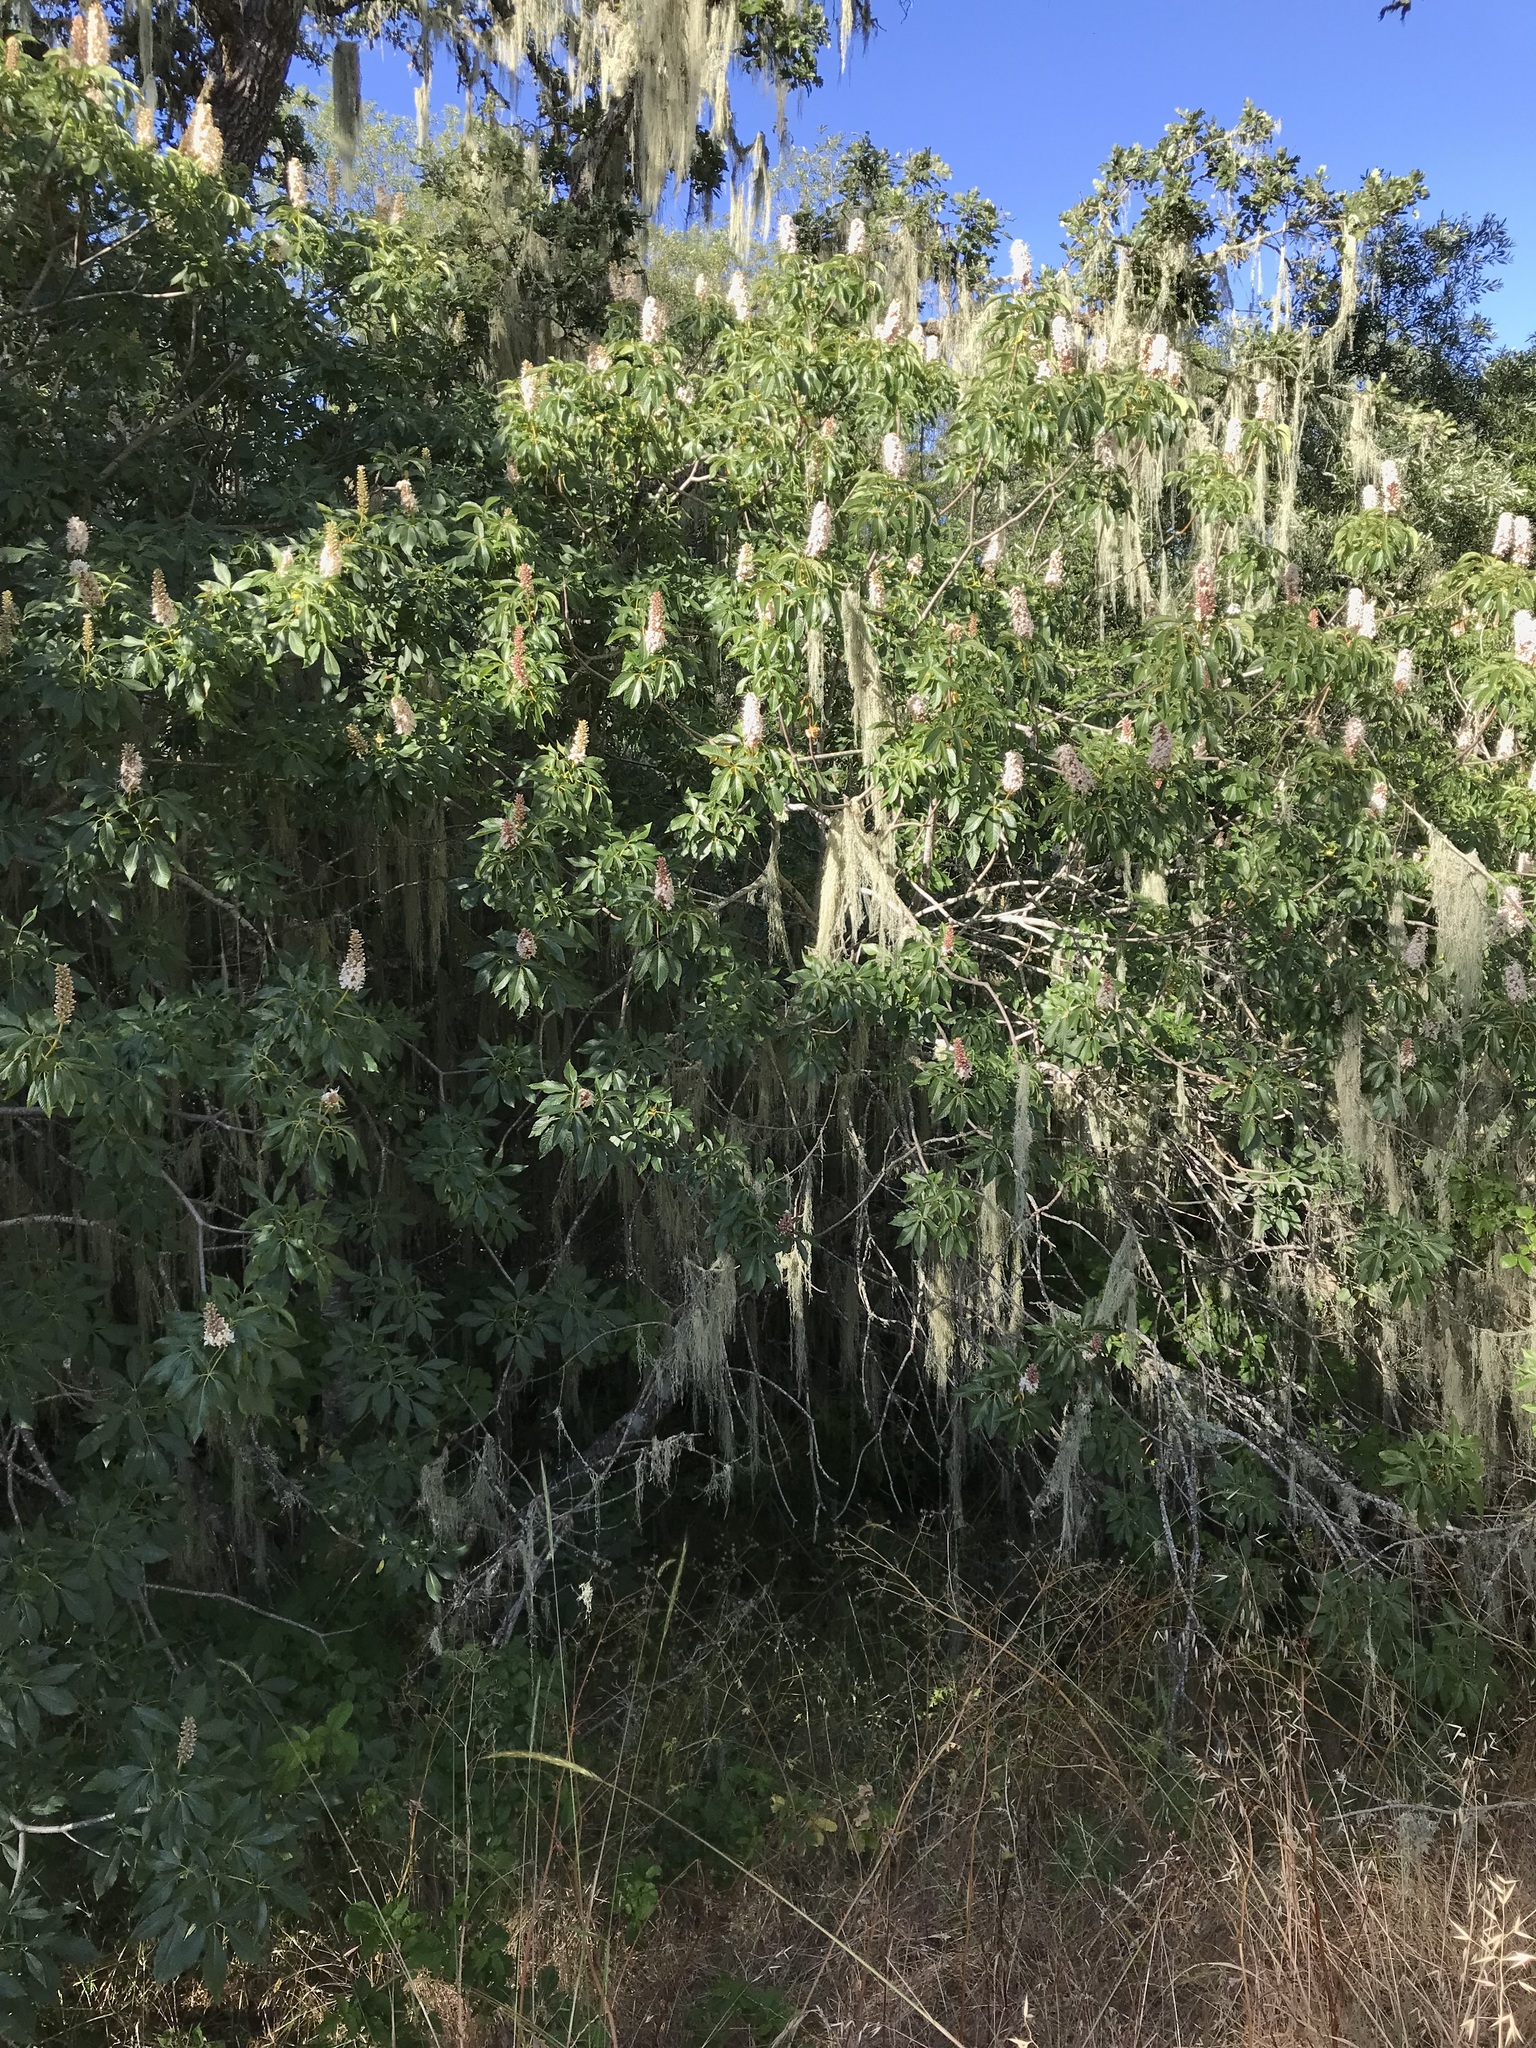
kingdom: Plantae
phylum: Tracheophyta
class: Magnoliopsida
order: Sapindales
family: Sapindaceae
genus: Aesculus
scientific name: Aesculus californica
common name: California buckeye
